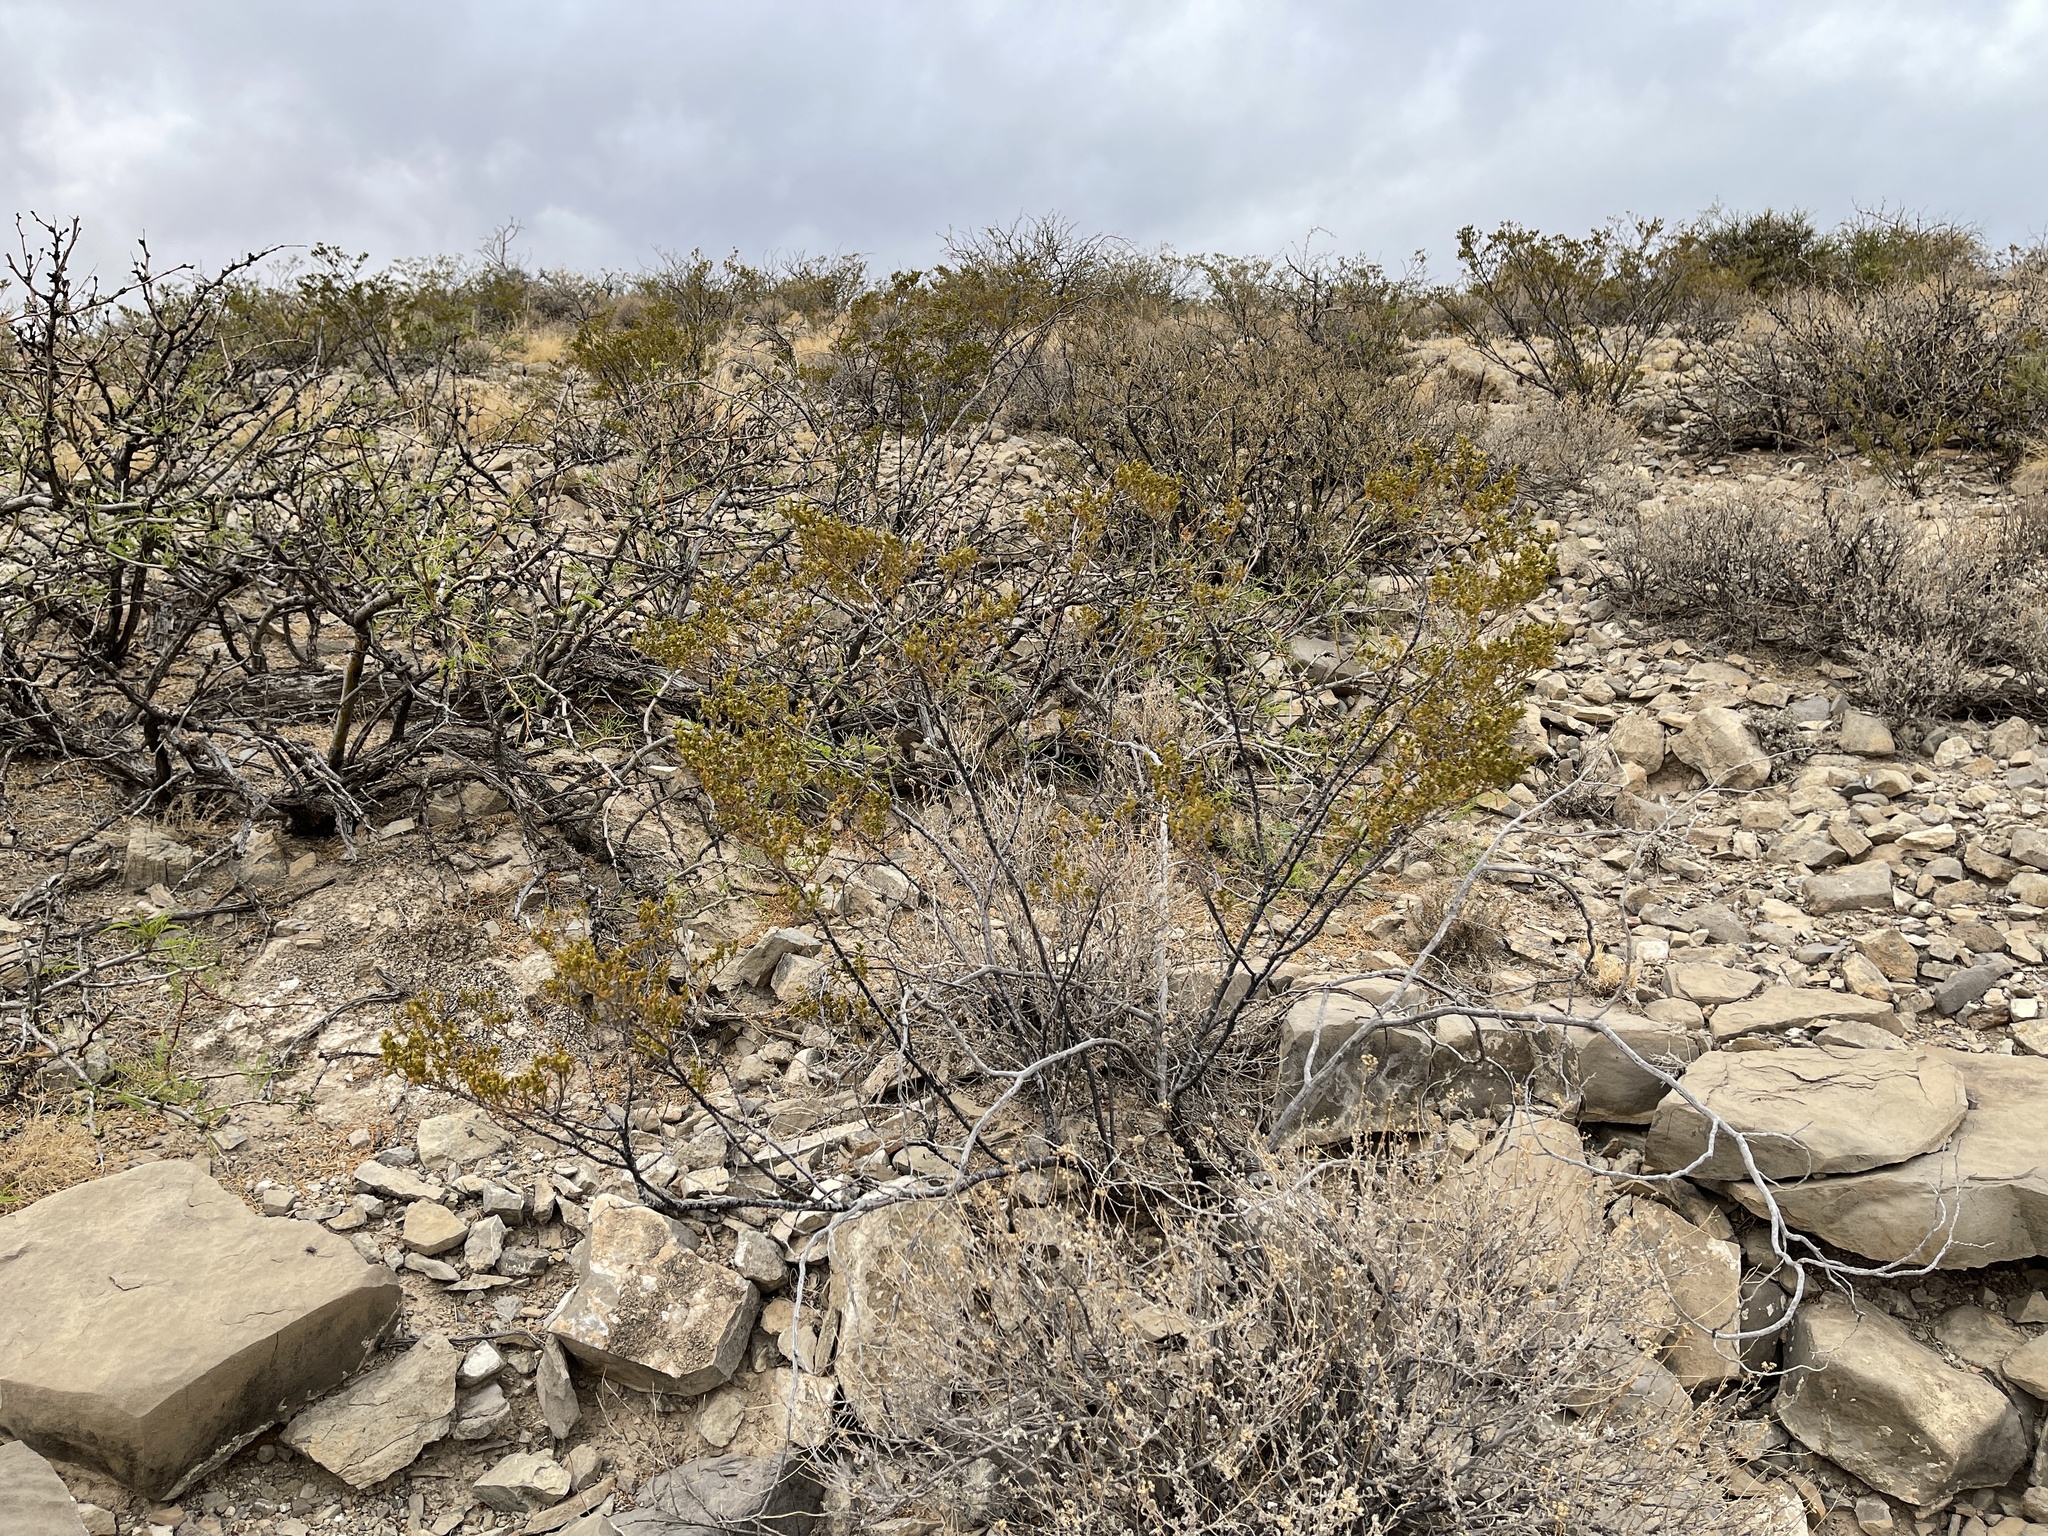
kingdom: Plantae
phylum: Tracheophyta
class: Magnoliopsida
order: Zygophyllales
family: Zygophyllaceae
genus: Larrea
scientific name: Larrea tridentata
